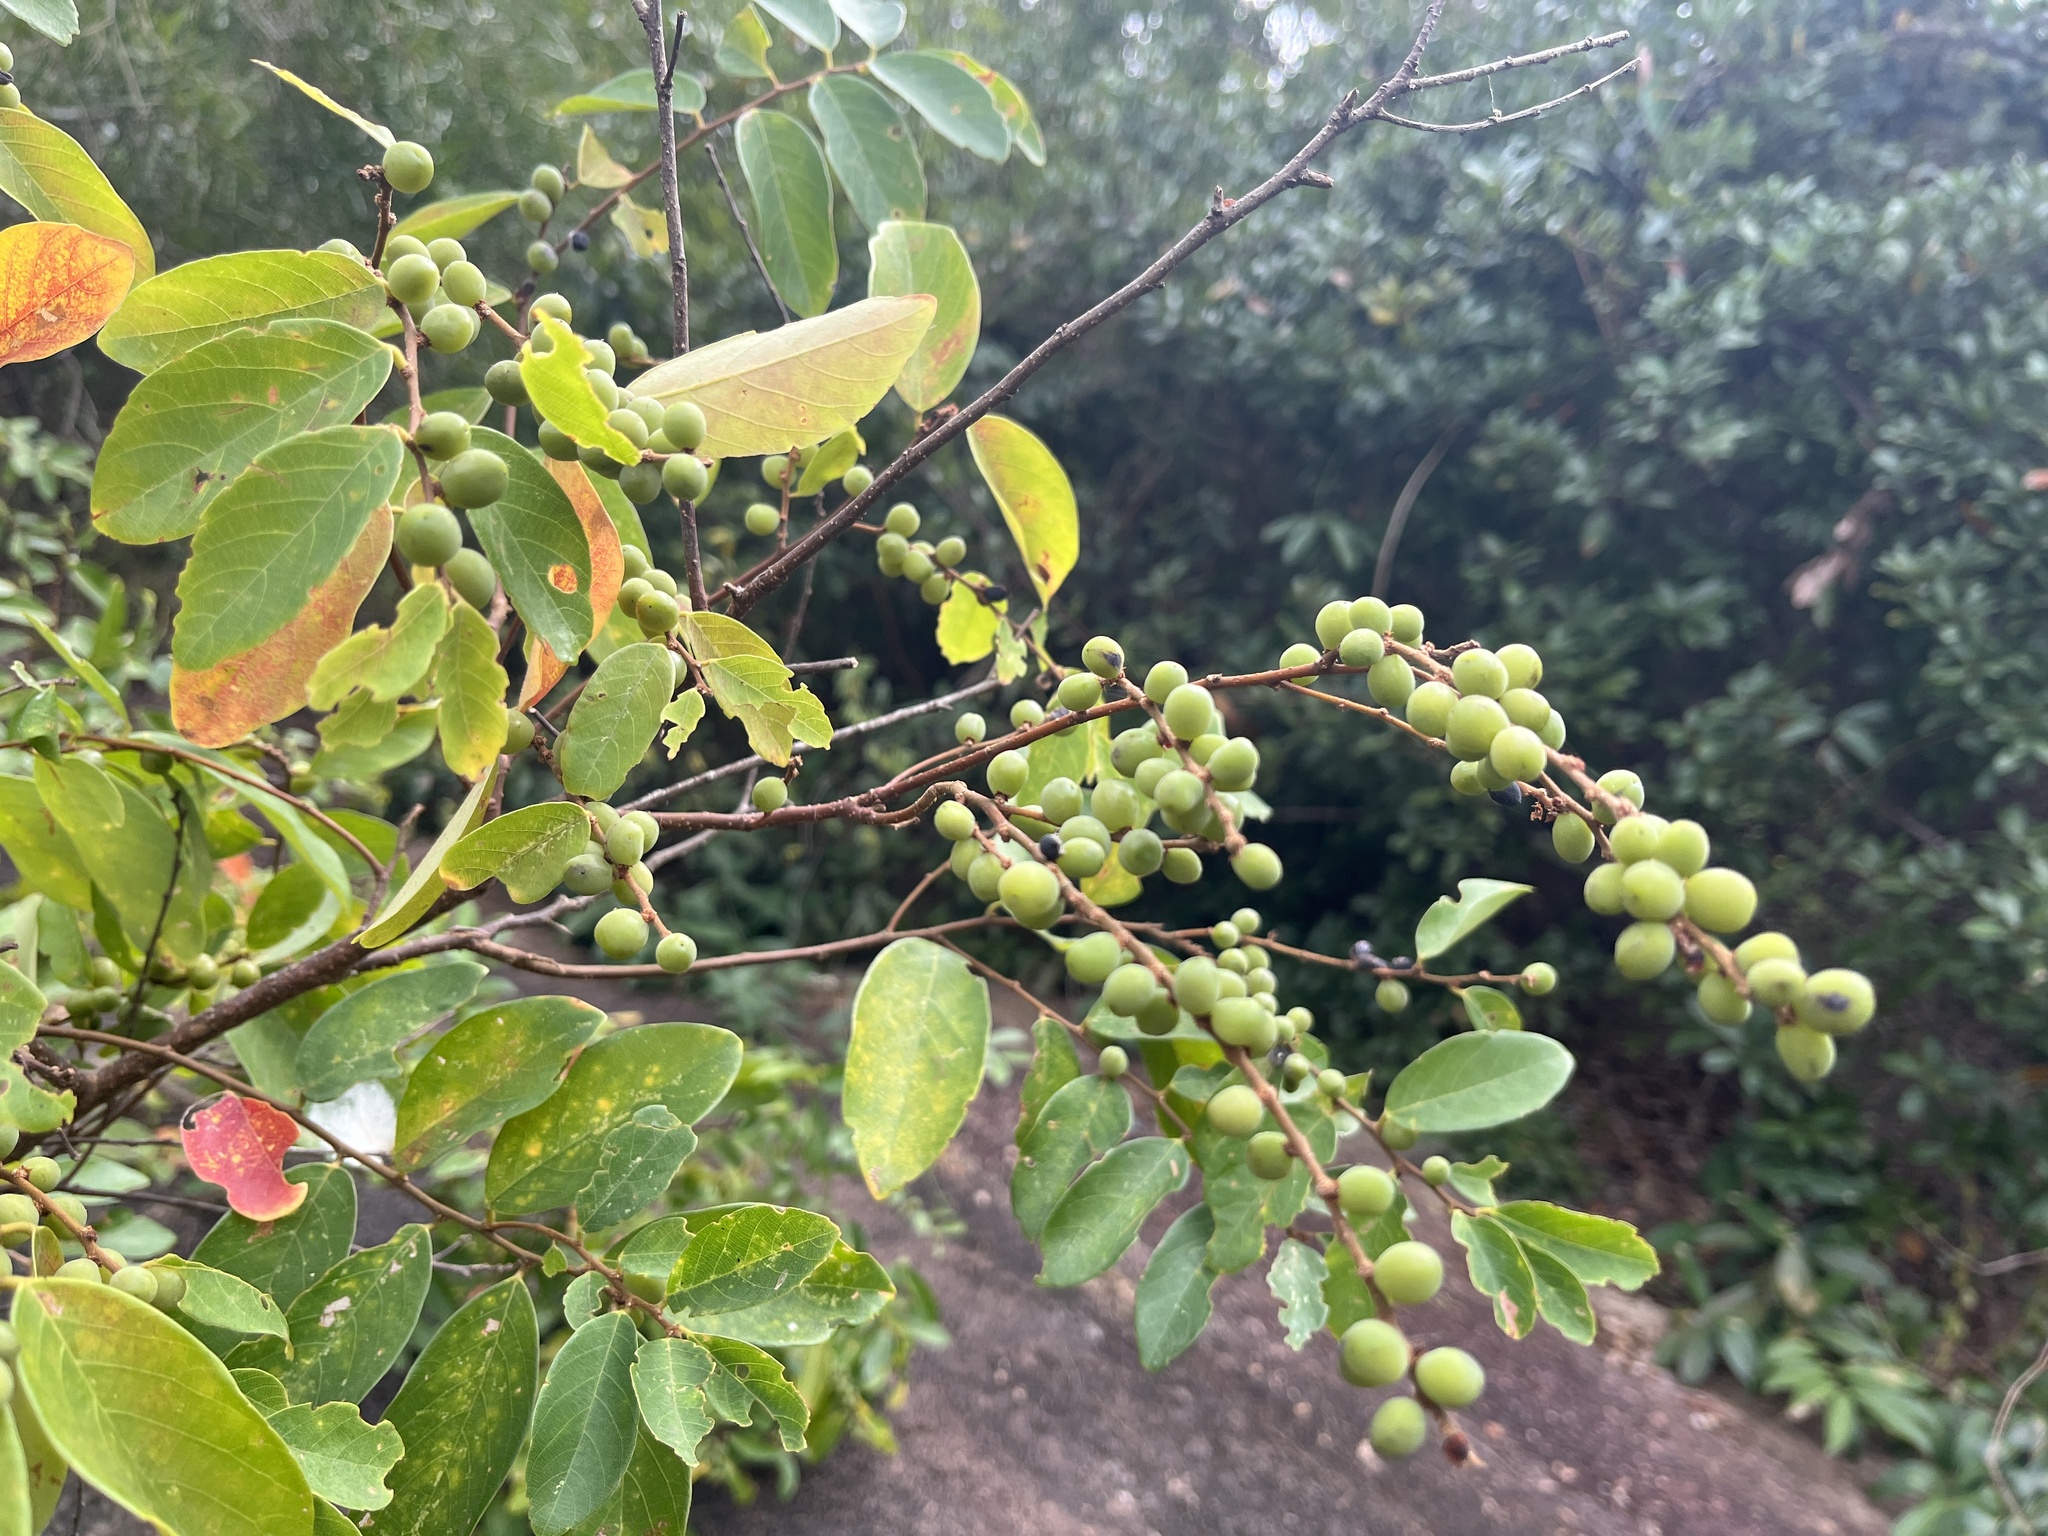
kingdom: Plantae
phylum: Tracheophyta
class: Magnoliopsida
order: Malpighiales
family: Phyllanthaceae
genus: Bridelia
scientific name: Bridelia tomentosa
